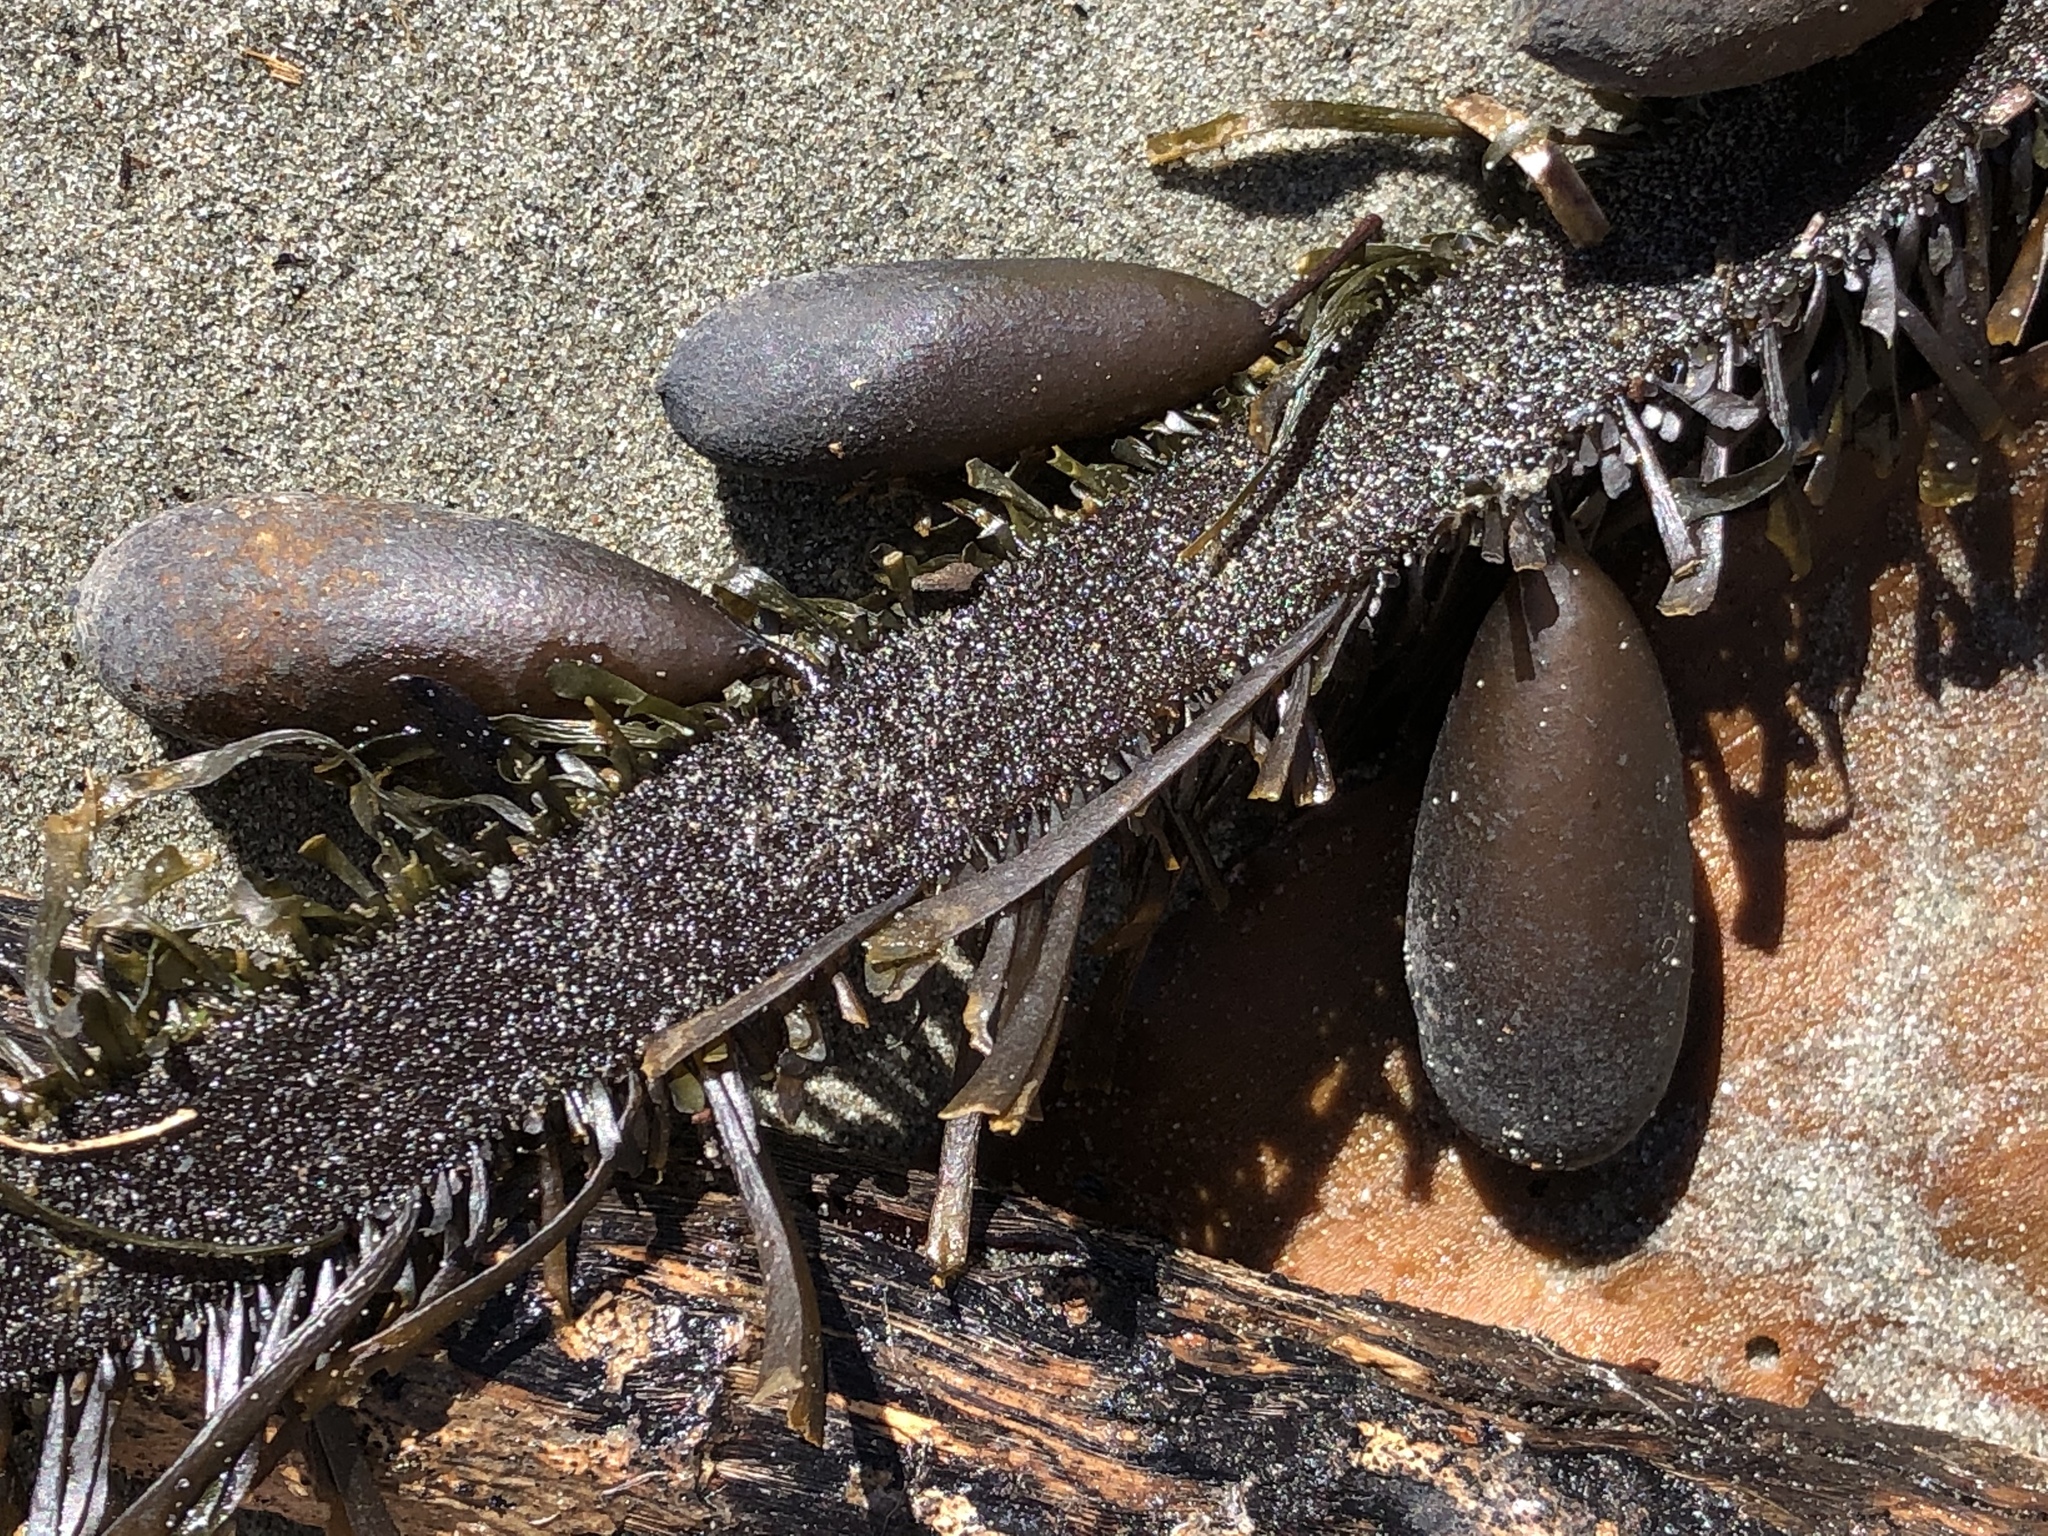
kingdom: Chromista
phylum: Ochrophyta
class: Phaeophyceae
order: Laminariales
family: Lessoniaceae
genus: Egregia
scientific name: Egregia menziesii
